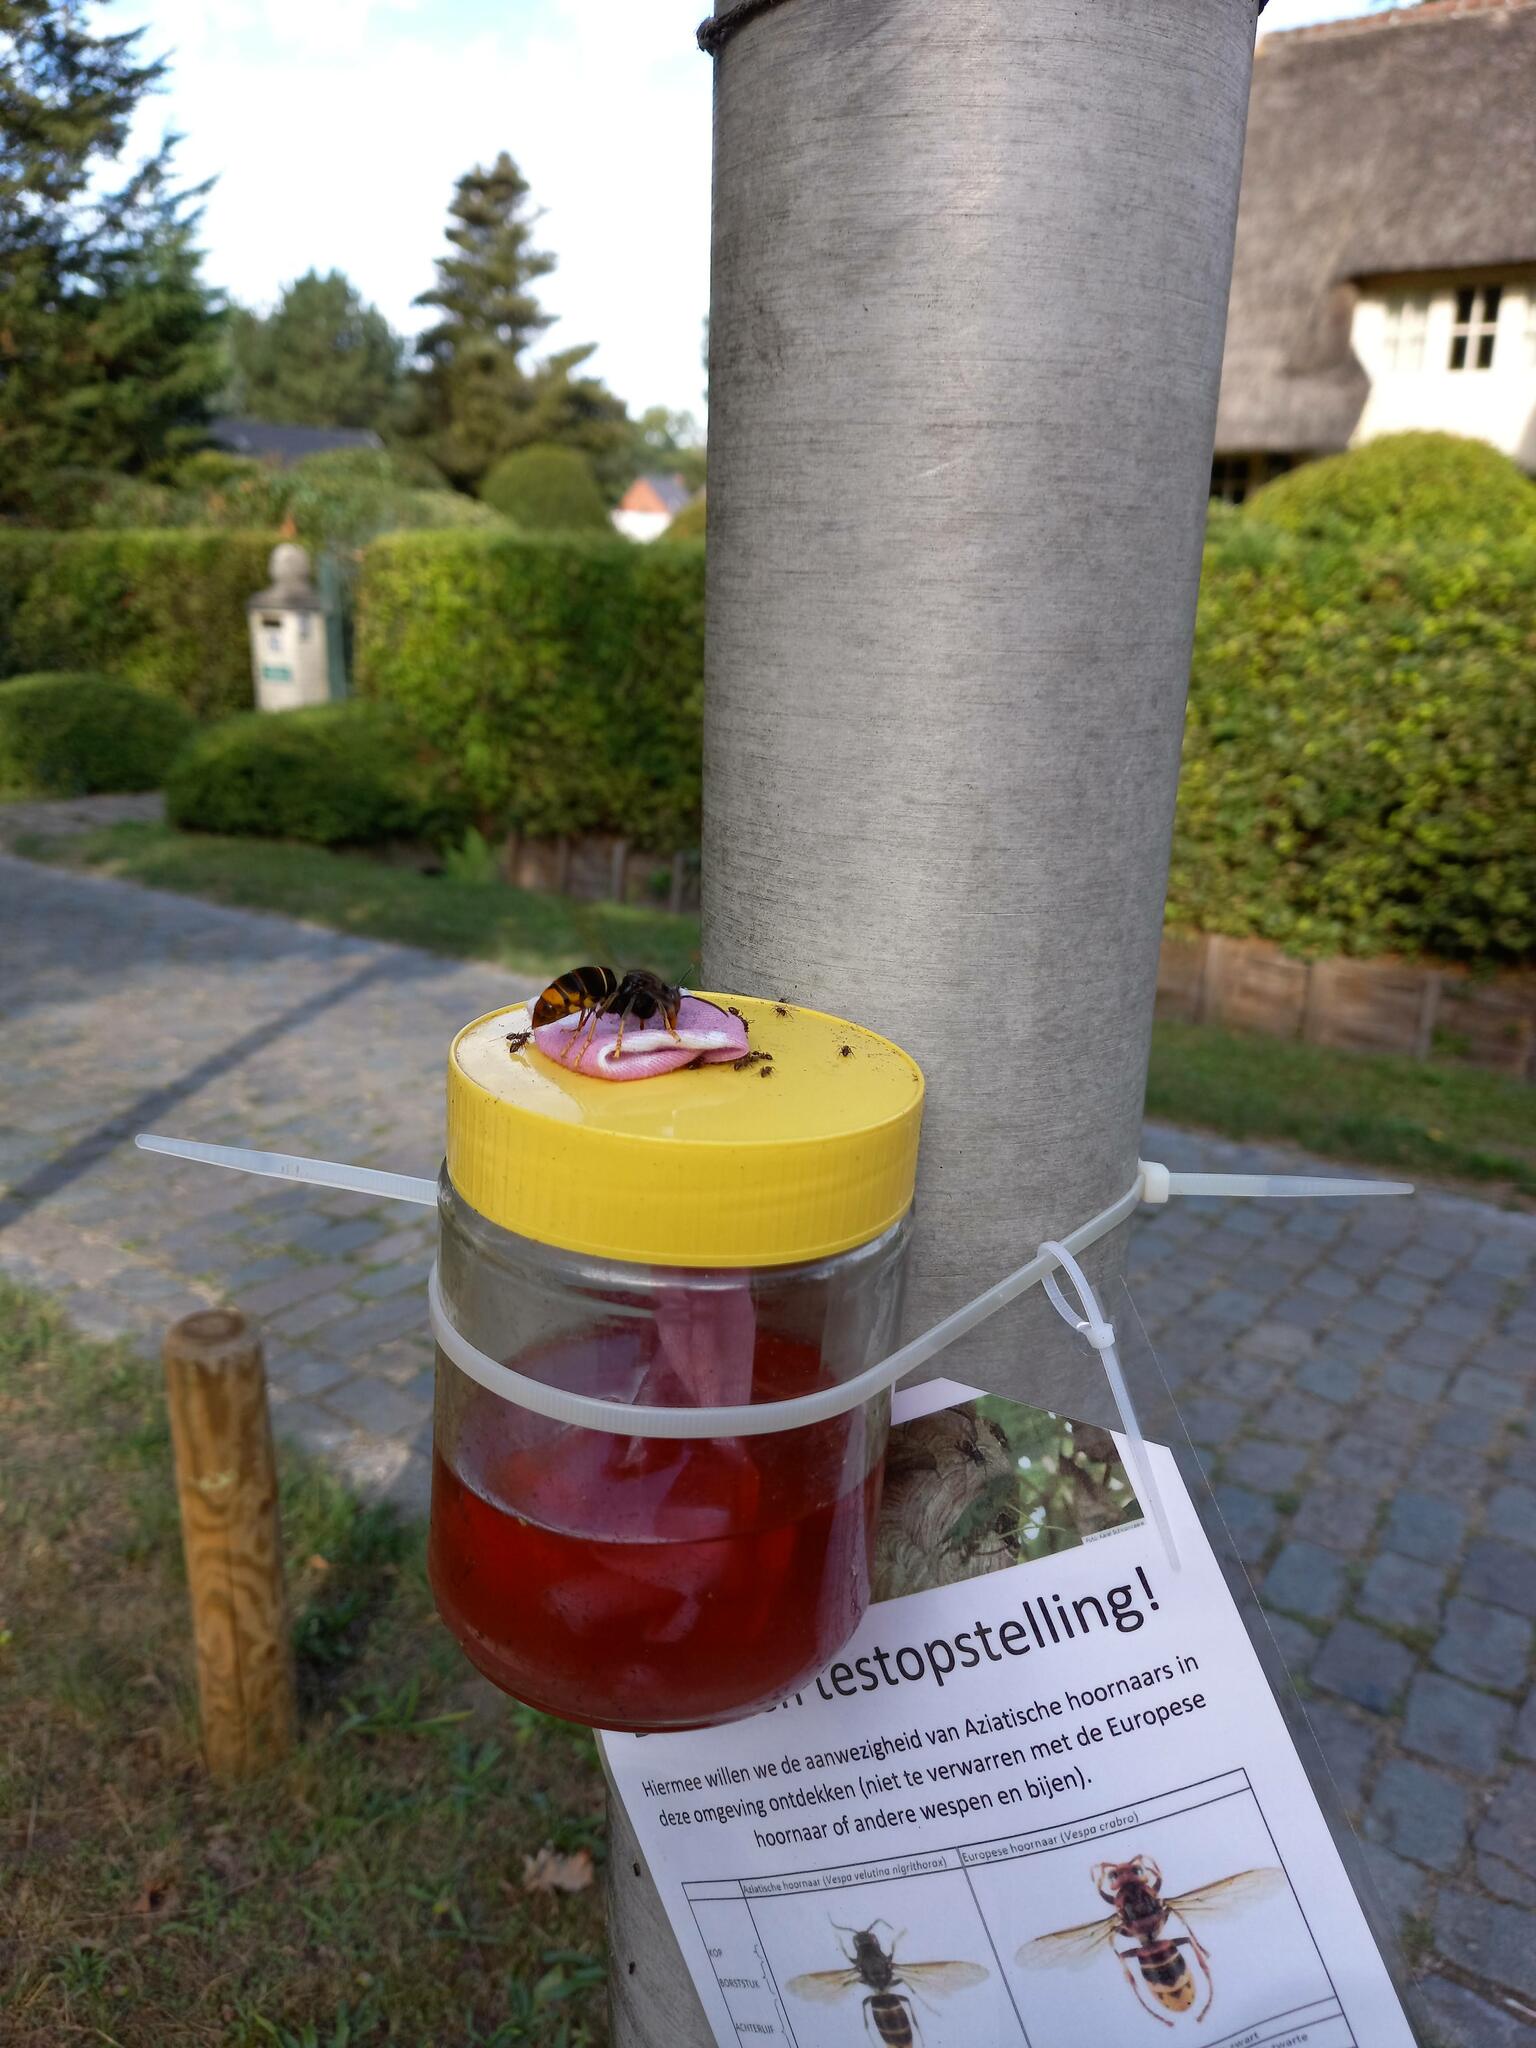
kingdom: Animalia
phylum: Arthropoda
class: Insecta
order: Hymenoptera
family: Vespidae
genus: Vespa
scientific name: Vespa velutina
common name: Asian hornet
